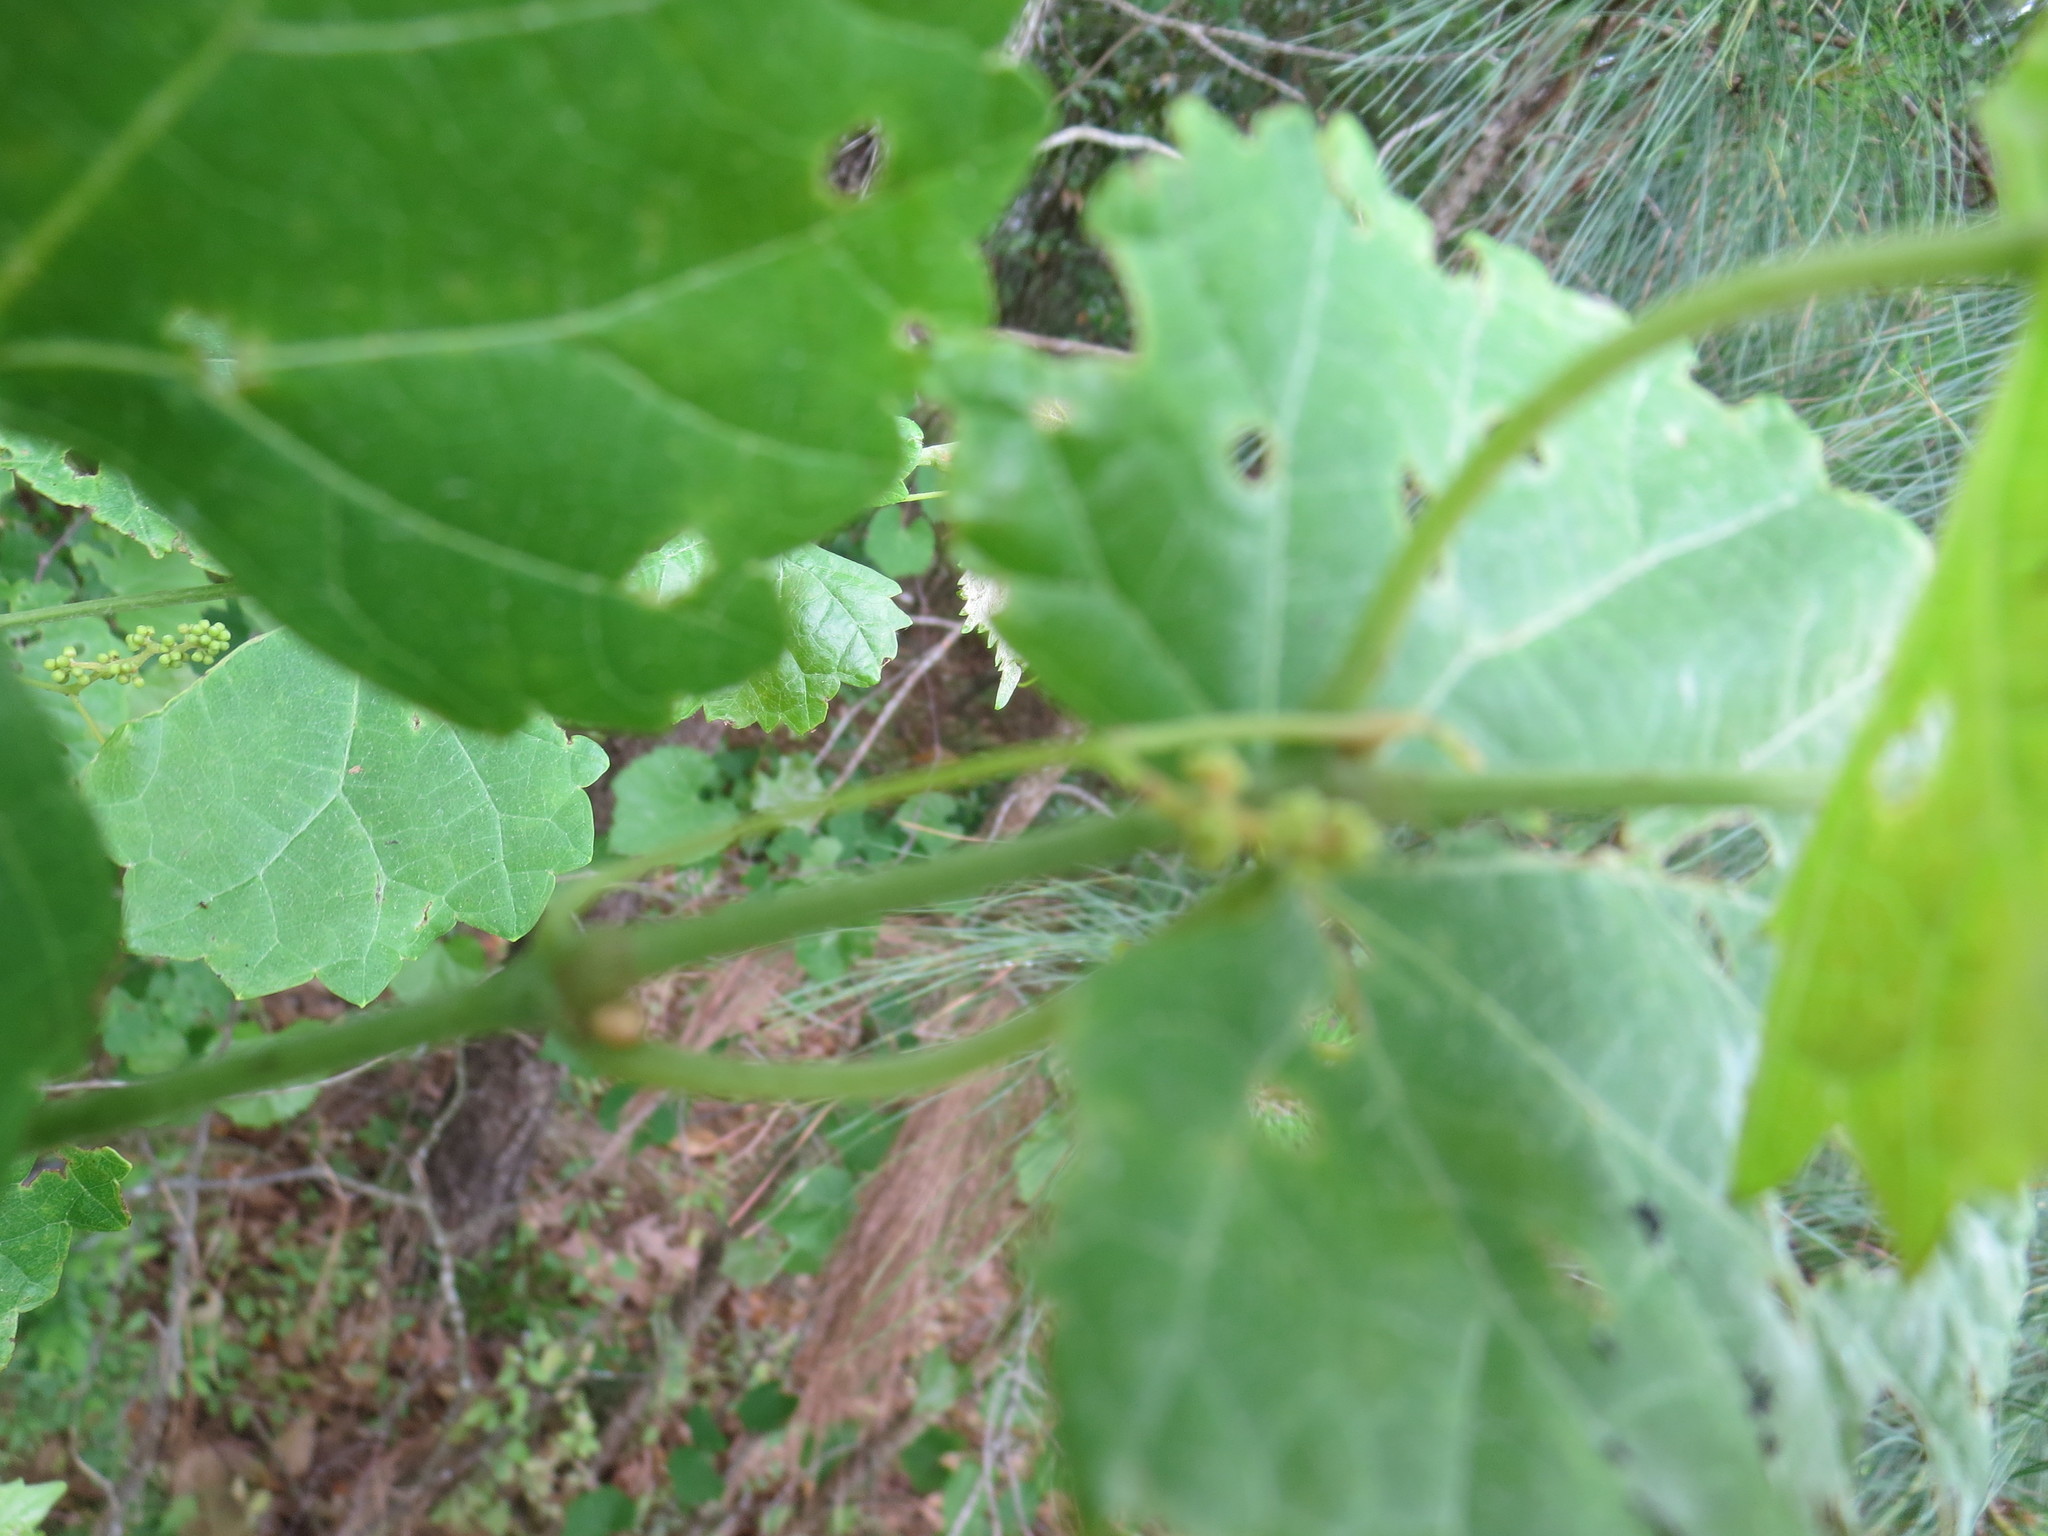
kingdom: Plantae
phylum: Tracheophyta
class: Magnoliopsida
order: Vitales
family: Vitaceae
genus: Vitis
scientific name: Vitis rotundifolia
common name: Muscadine grape
